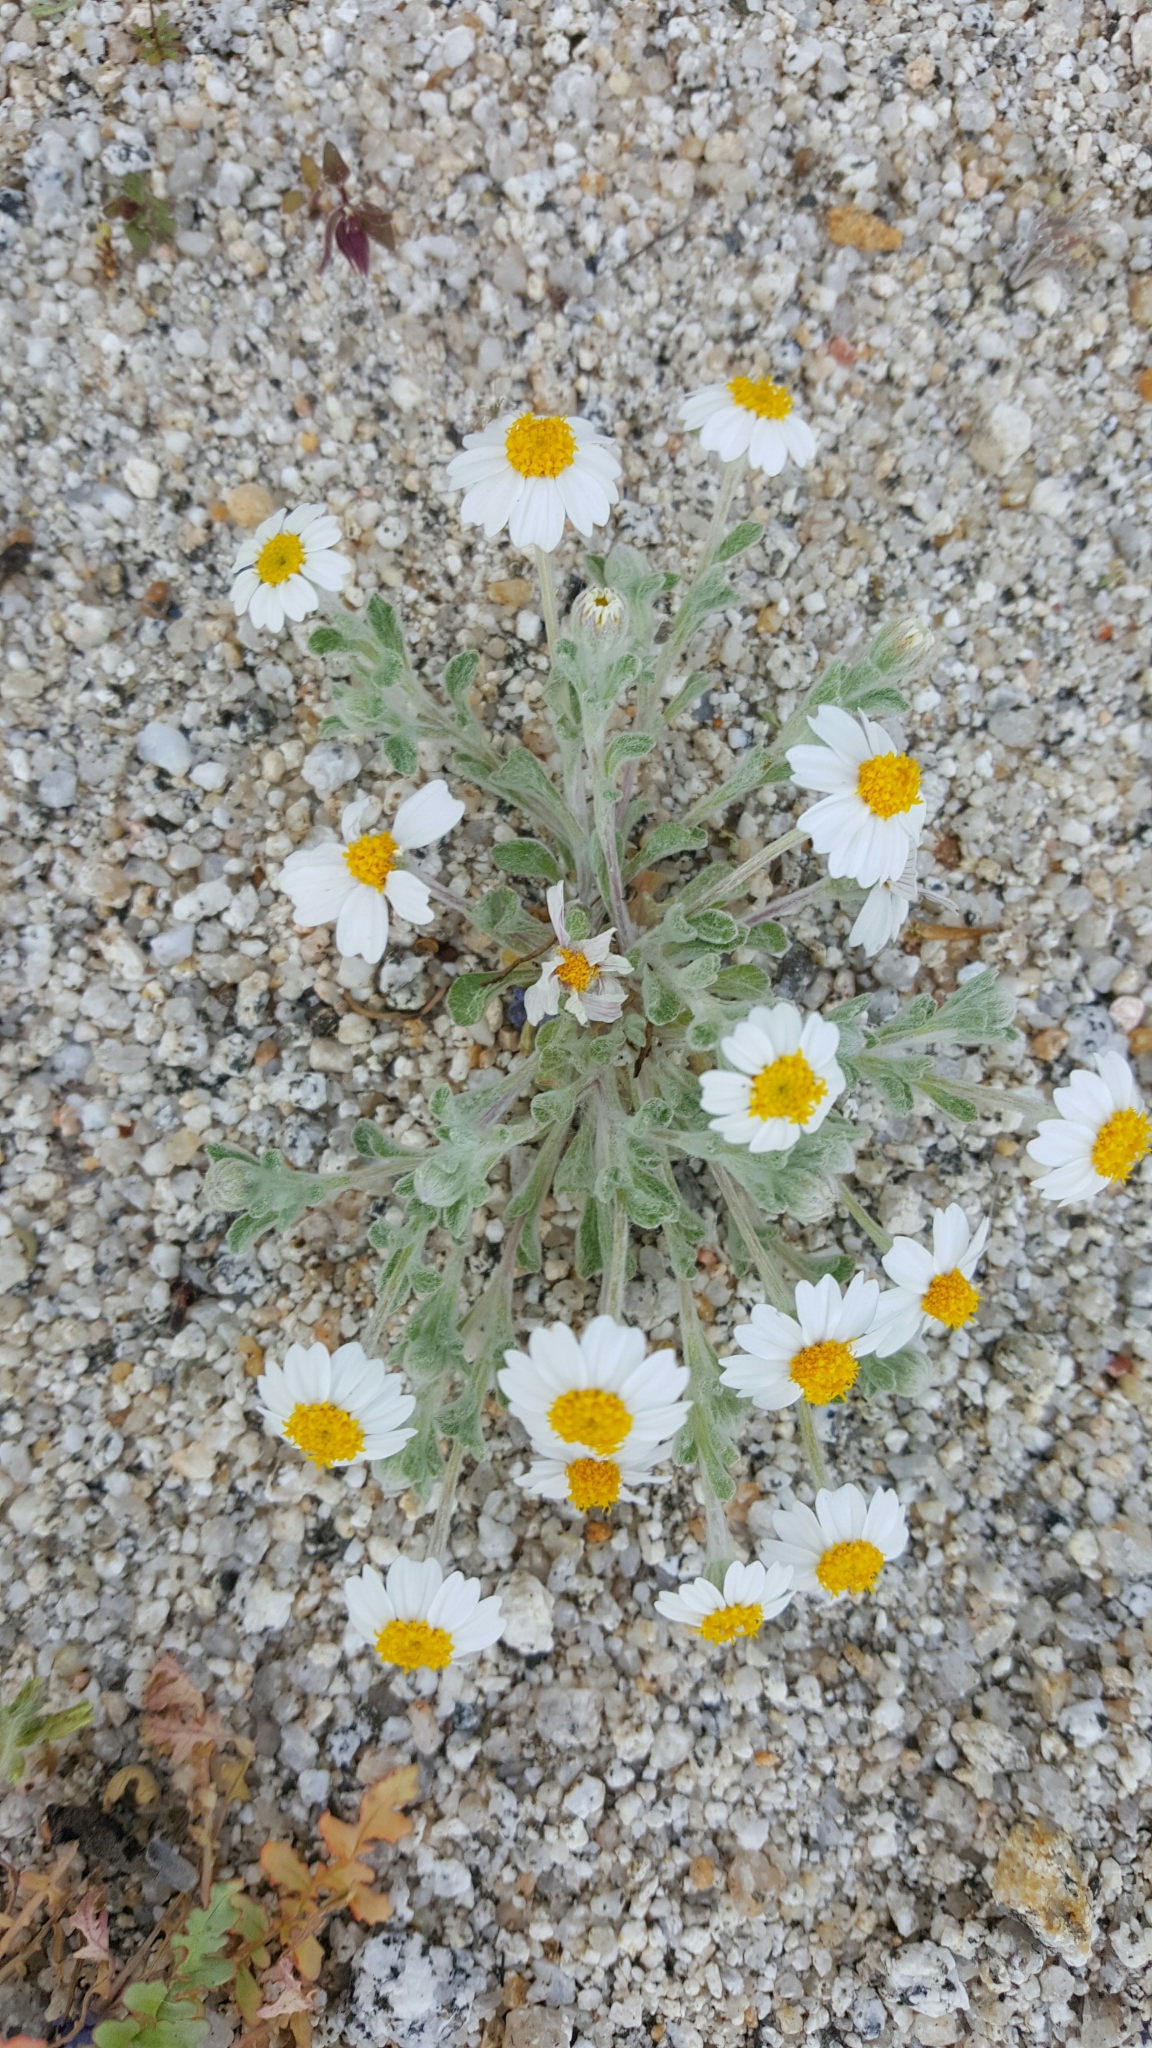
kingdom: Plantae
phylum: Tracheophyta
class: Magnoliopsida
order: Asterales
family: Asteraceae
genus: Eriophyllum
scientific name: Eriophyllum wallacei
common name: Wallace's woolly daisy
